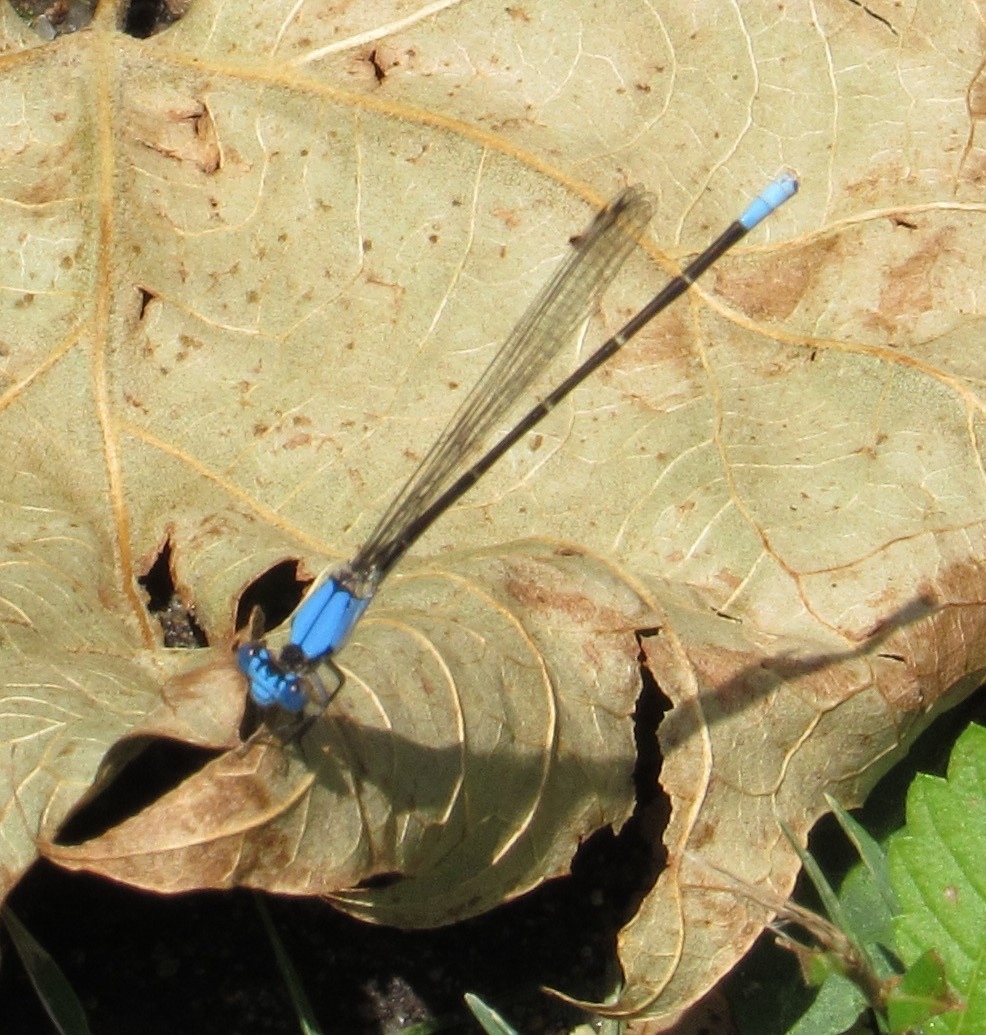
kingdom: Animalia
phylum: Arthropoda
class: Insecta
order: Odonata
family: Coenagrionidae
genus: Argia
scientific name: Argia apicalis
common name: Blue-fronted dancer
